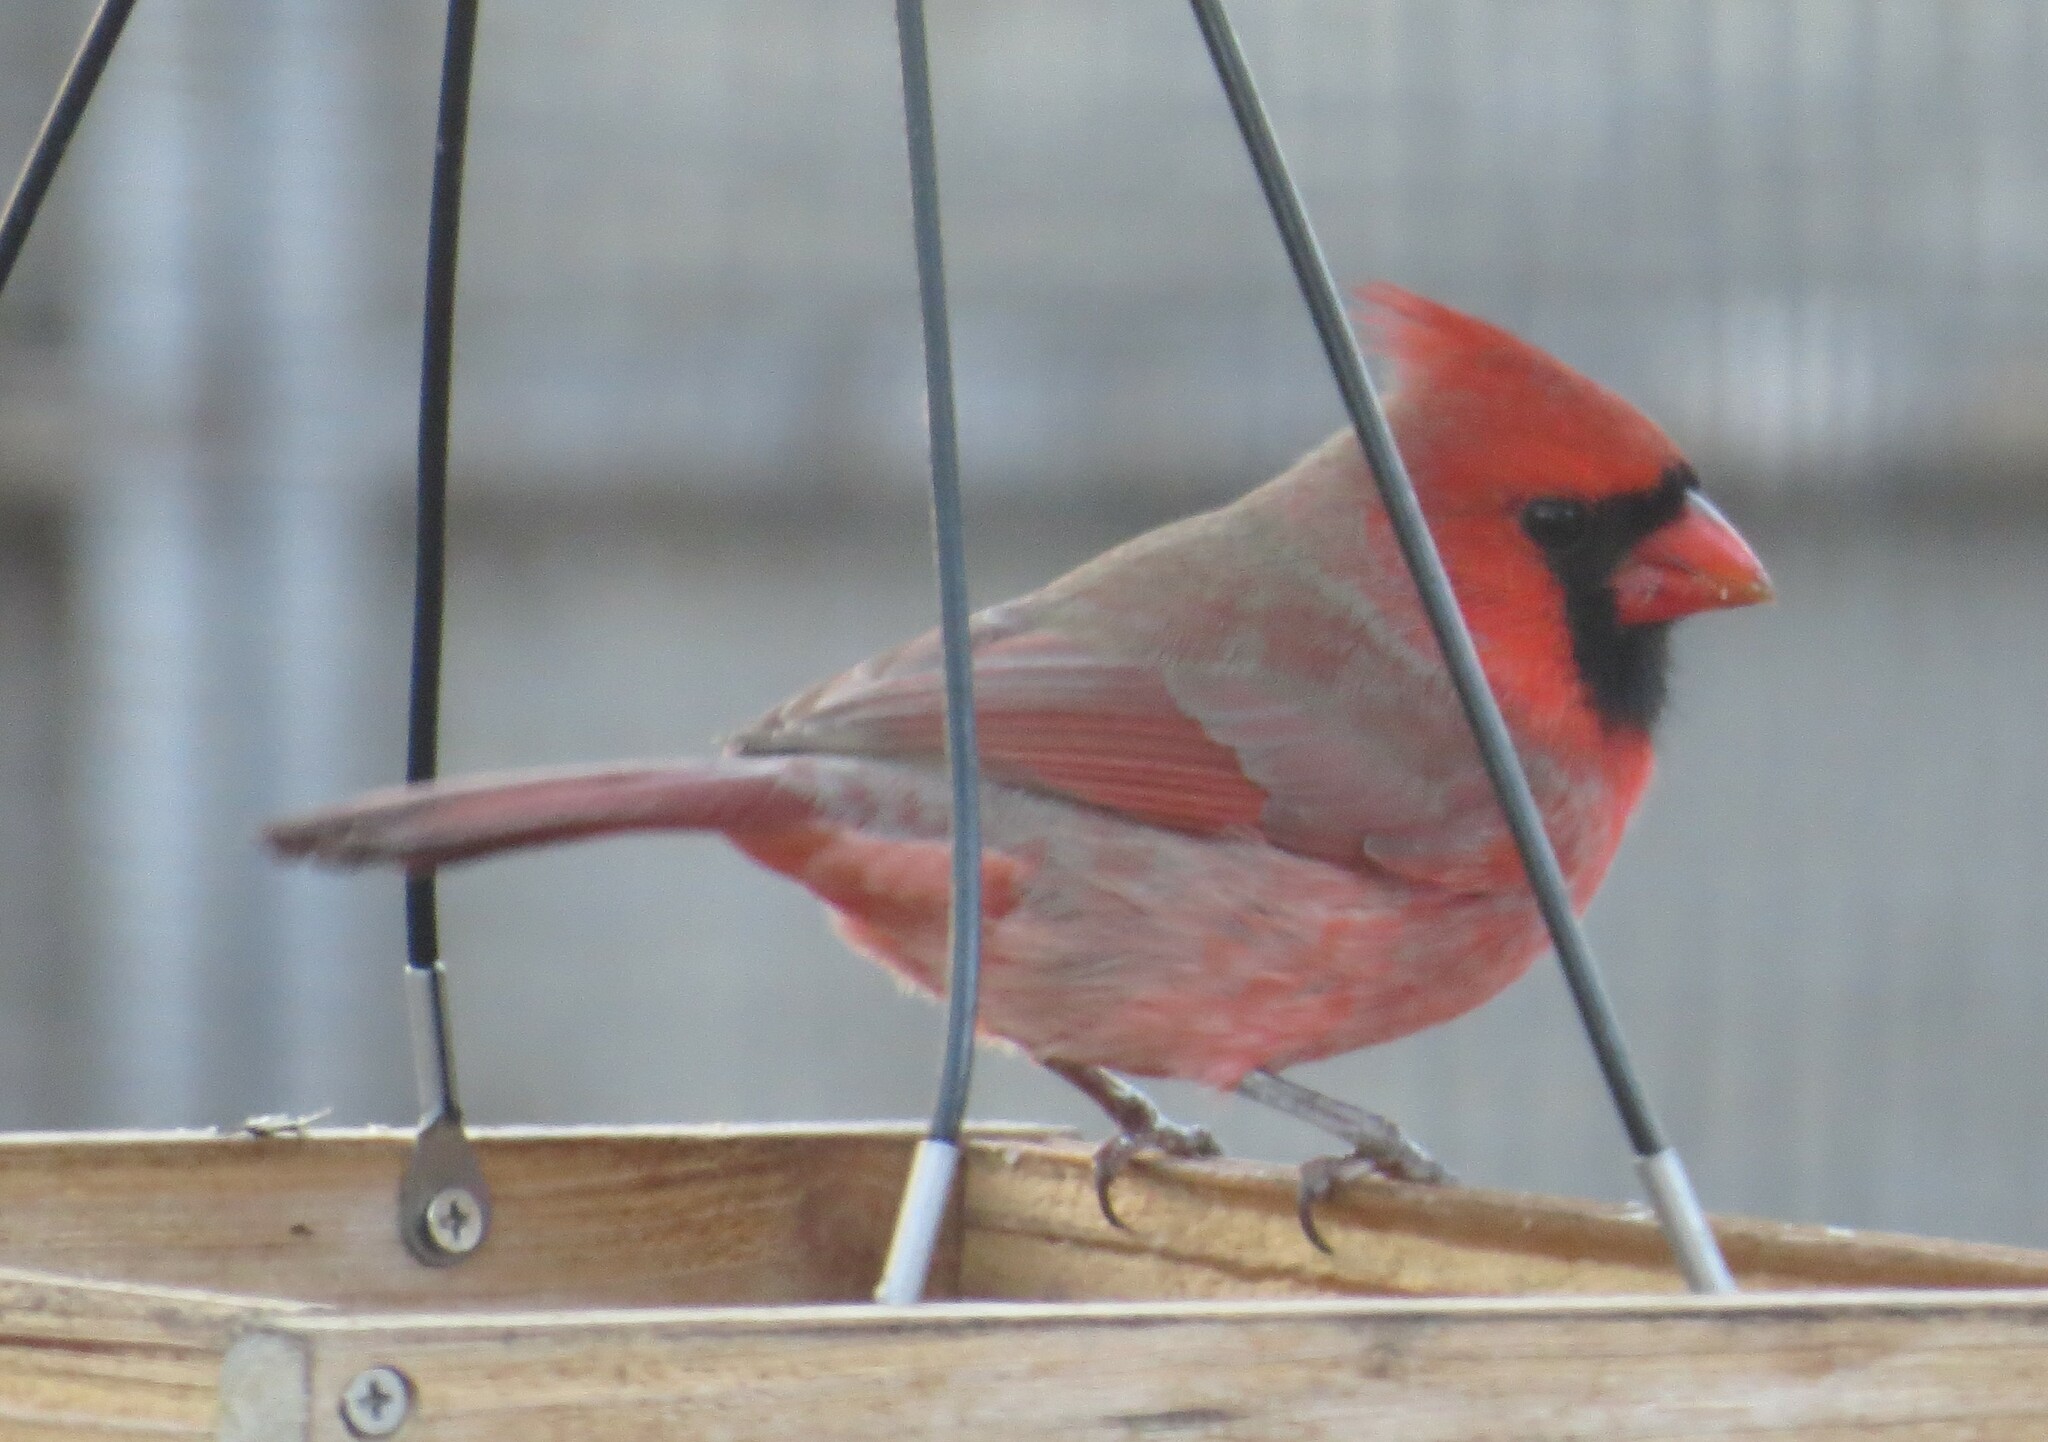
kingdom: Animalia
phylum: Chordata
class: Aves
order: Passeriformes
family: Cardinalidae
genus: Cardinalis
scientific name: Cardinalis cardinalis
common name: Northern cardinal
